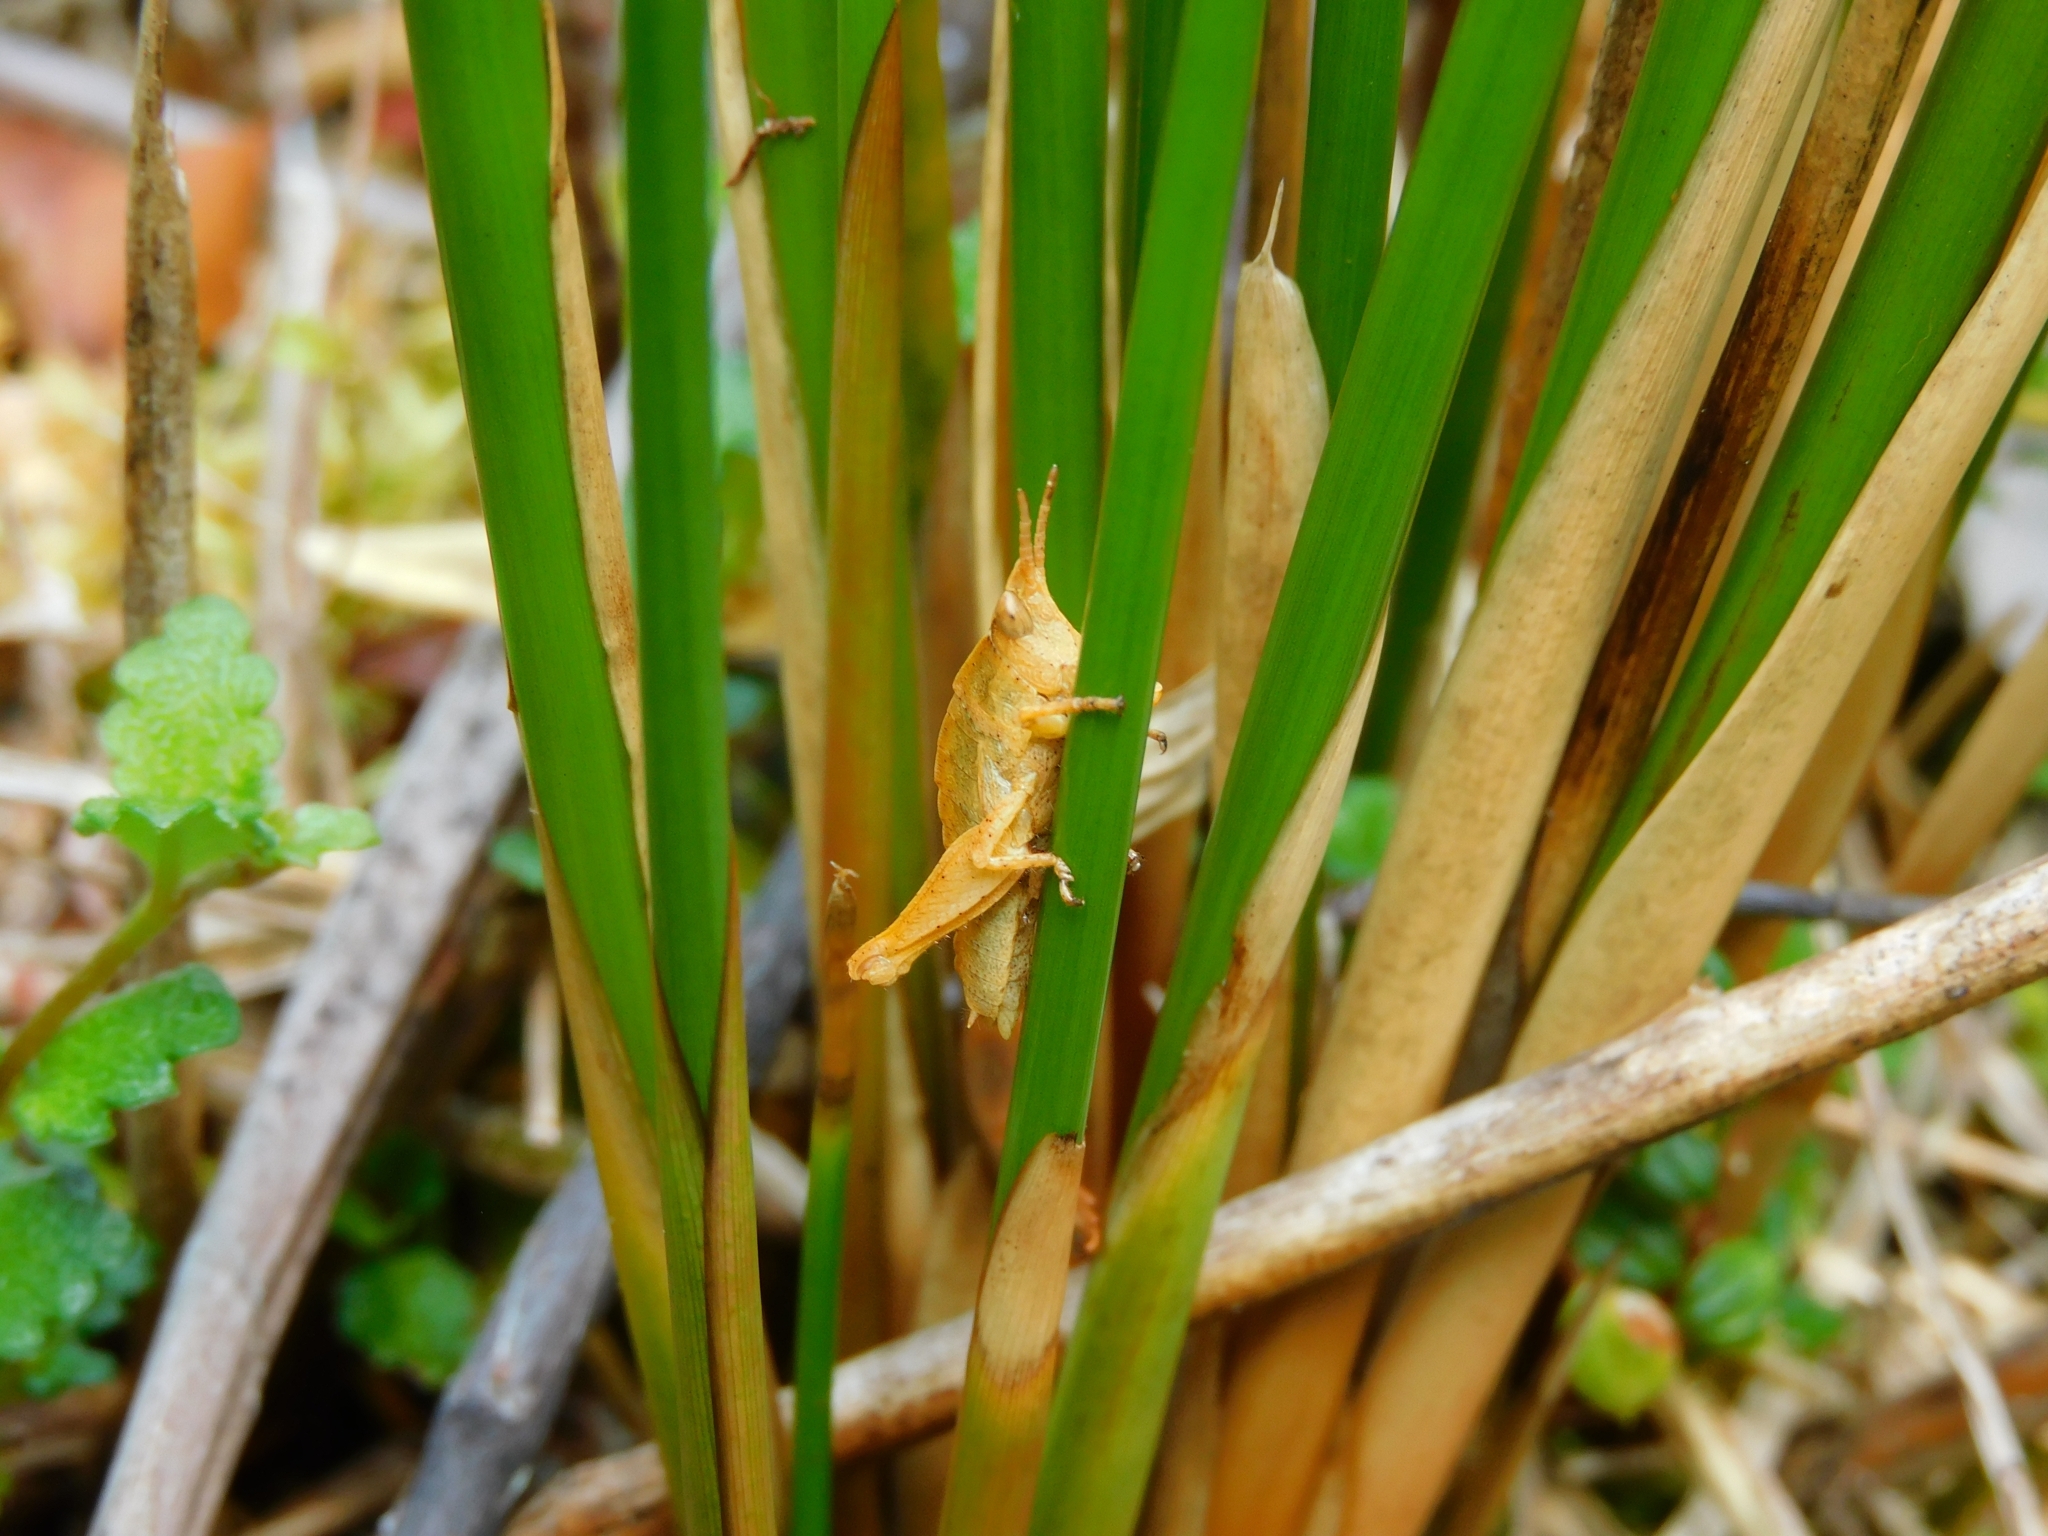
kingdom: Animalia
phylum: Arthropoda
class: Insecta
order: Orthoptera
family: Tristiridae
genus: Tropidostethus
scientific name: Tropidostethus angusticollis
